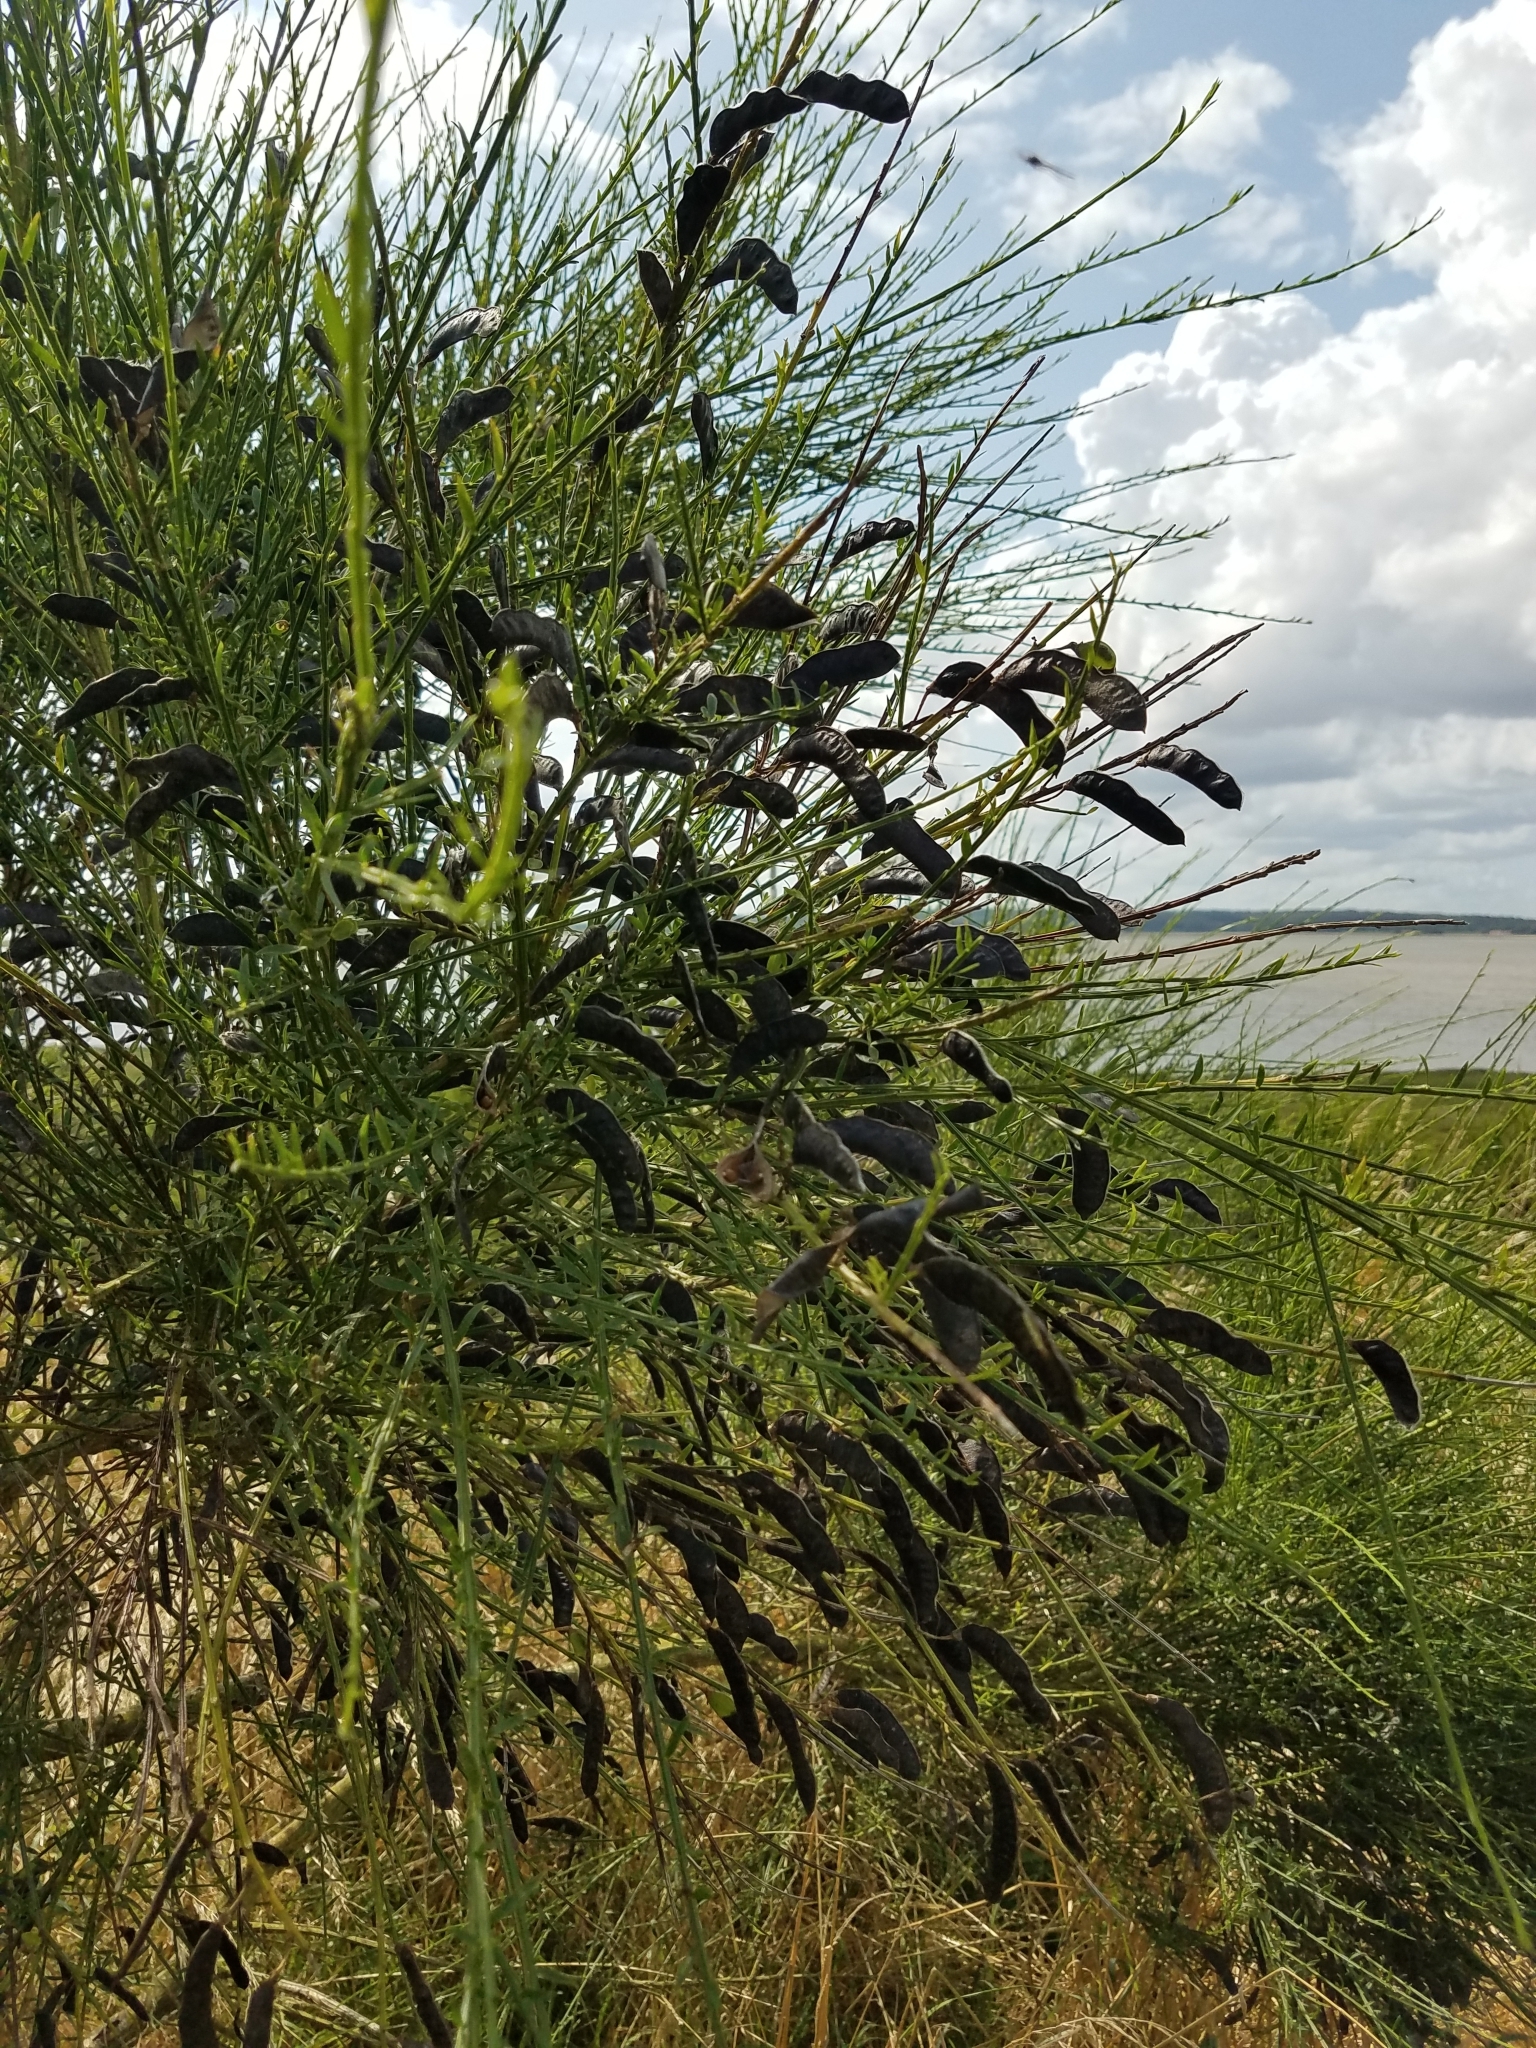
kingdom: Plantae
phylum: Tracheophyta
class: Magnoliopsida
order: Fabales
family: Fabaceae
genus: Cytisus
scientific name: Cytisus scoparius
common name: Scotch broom
